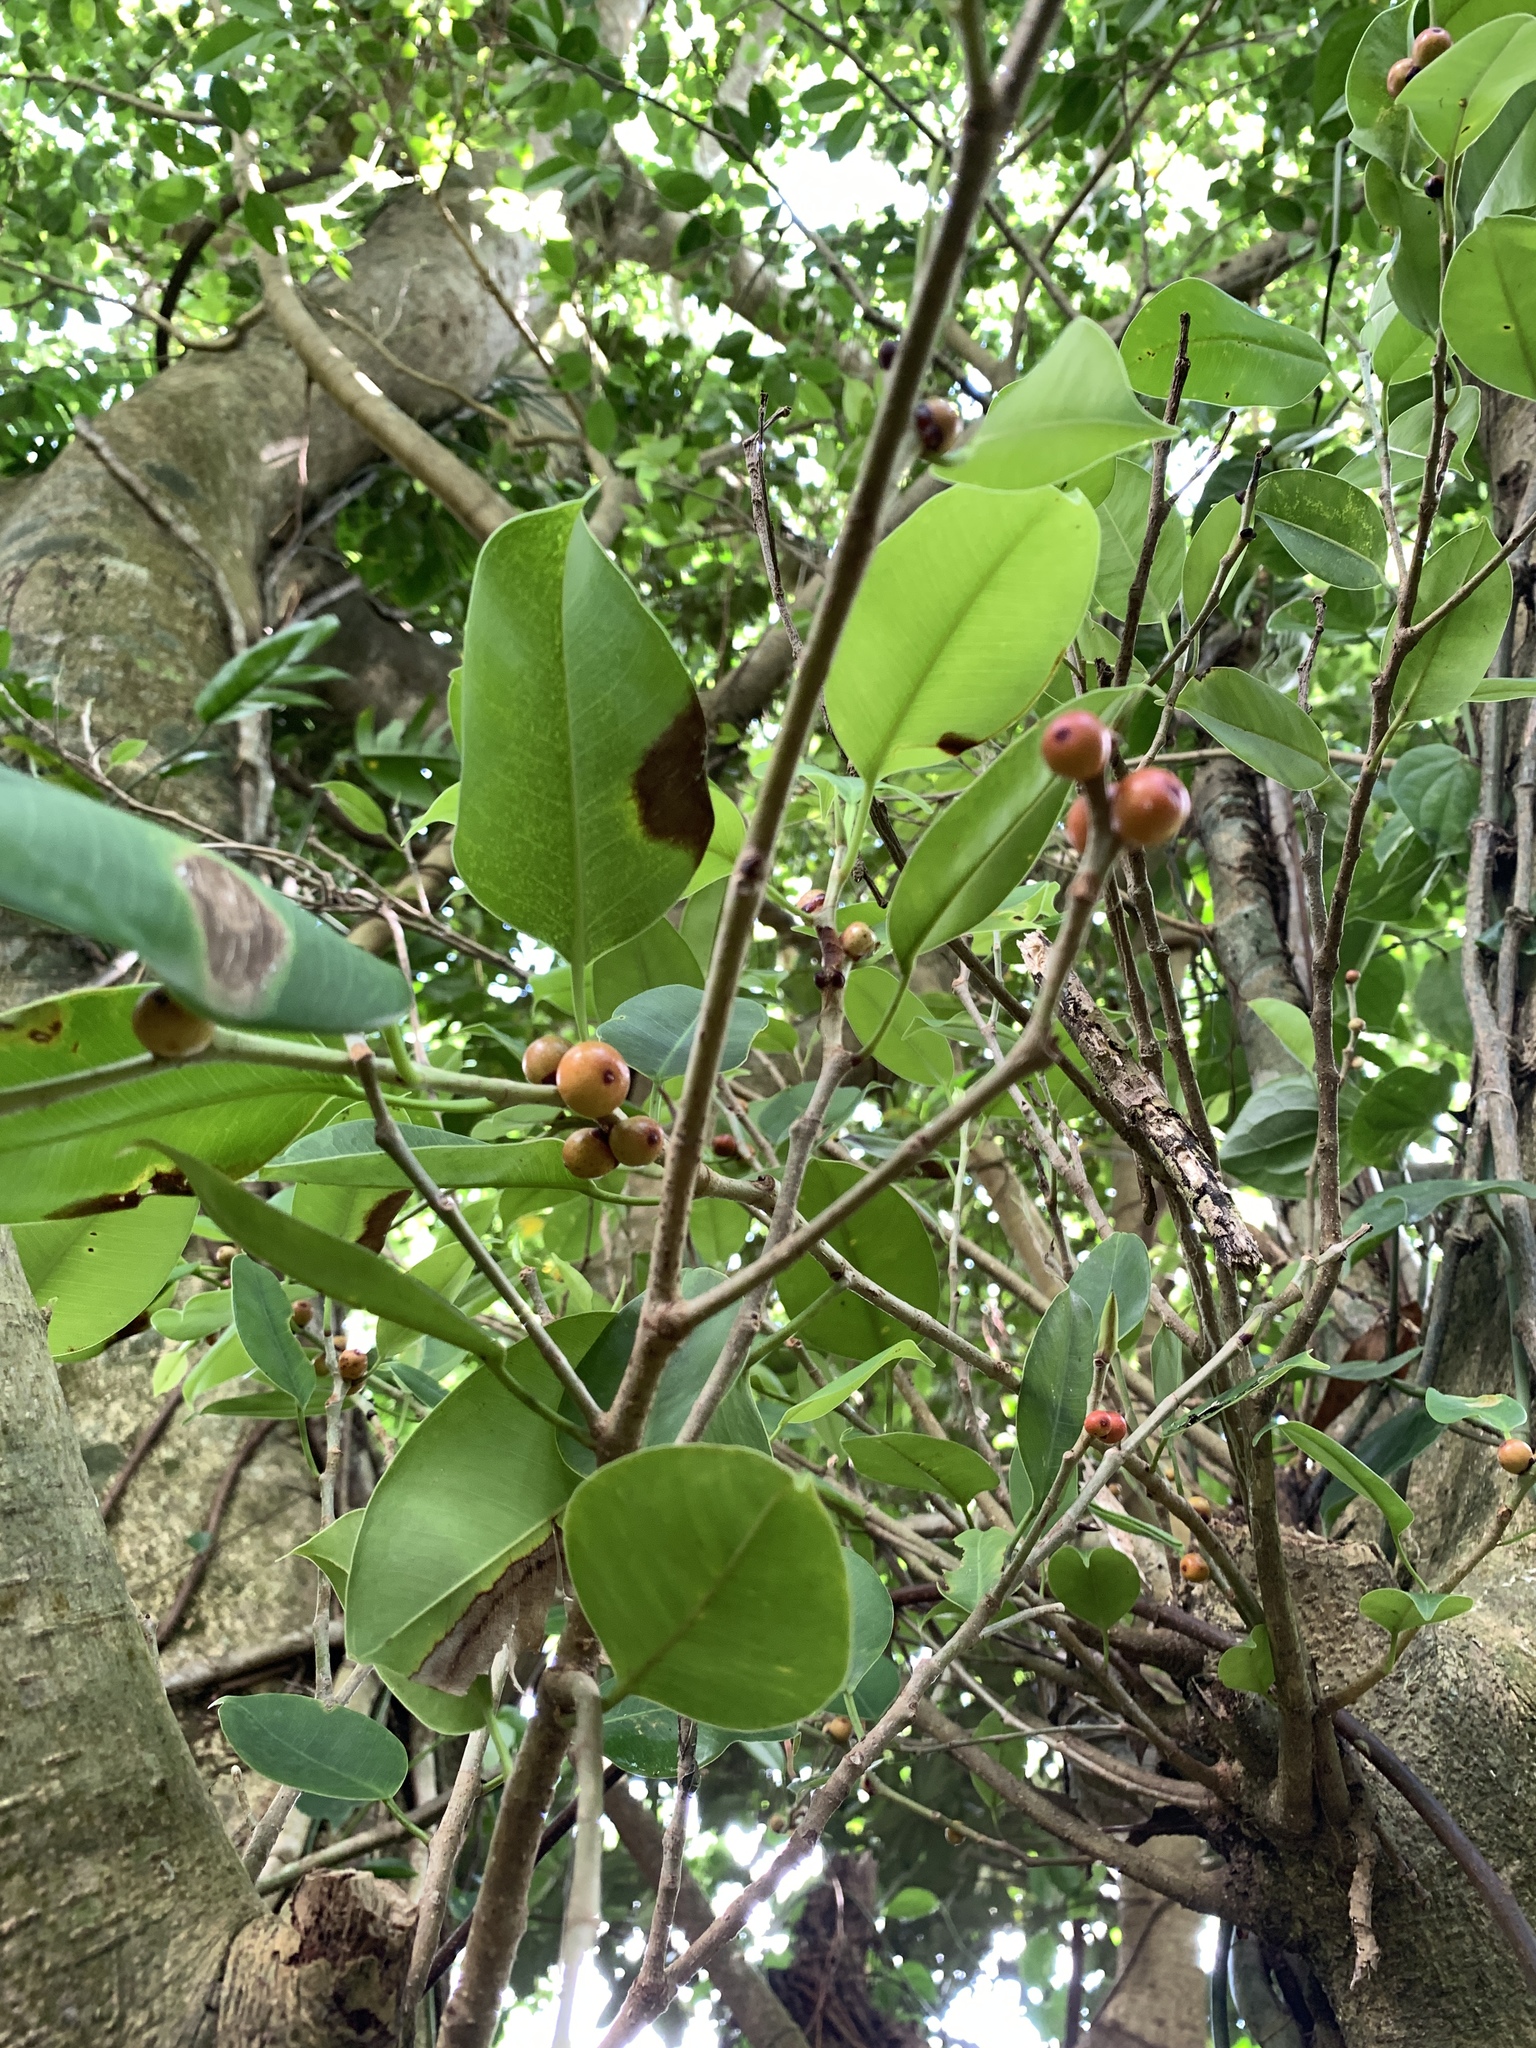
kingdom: Plantae
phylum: Tracheophyta
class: Magnoliopsida
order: Rosales
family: Moraceae
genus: Ficus
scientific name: Ficus benjamina
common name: Weeping fig
